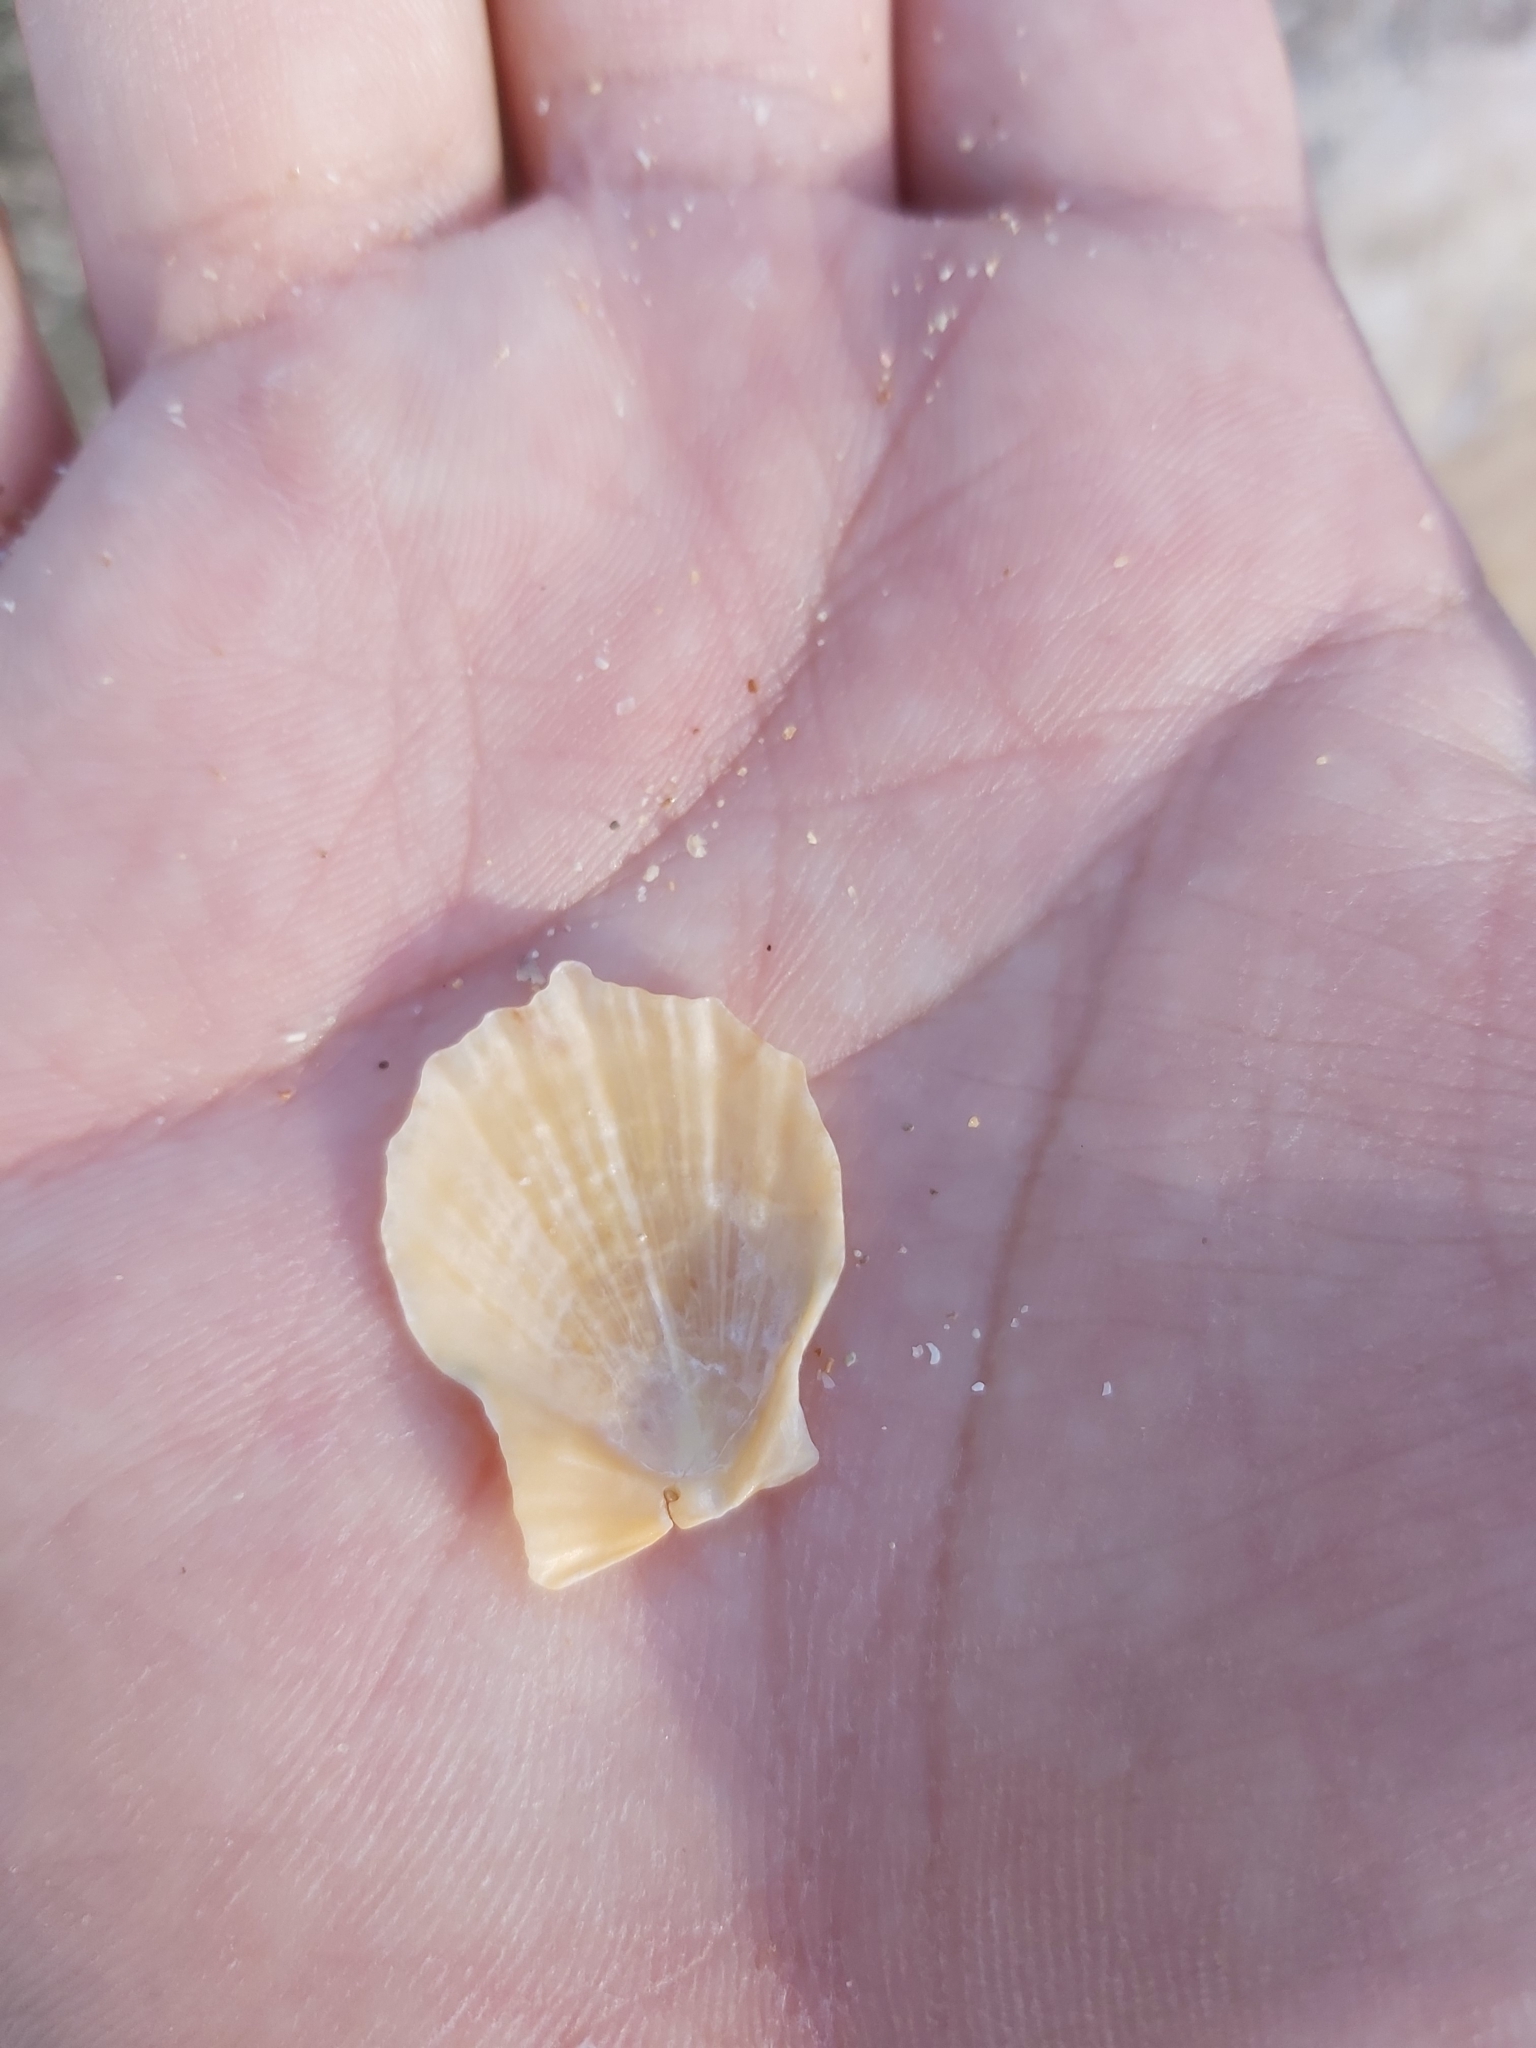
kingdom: Animalia
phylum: Mollusca
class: Bivalvia
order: Pectinida
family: Pectinidae
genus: Scaeochlamys
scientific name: Scaeochlamys livida
